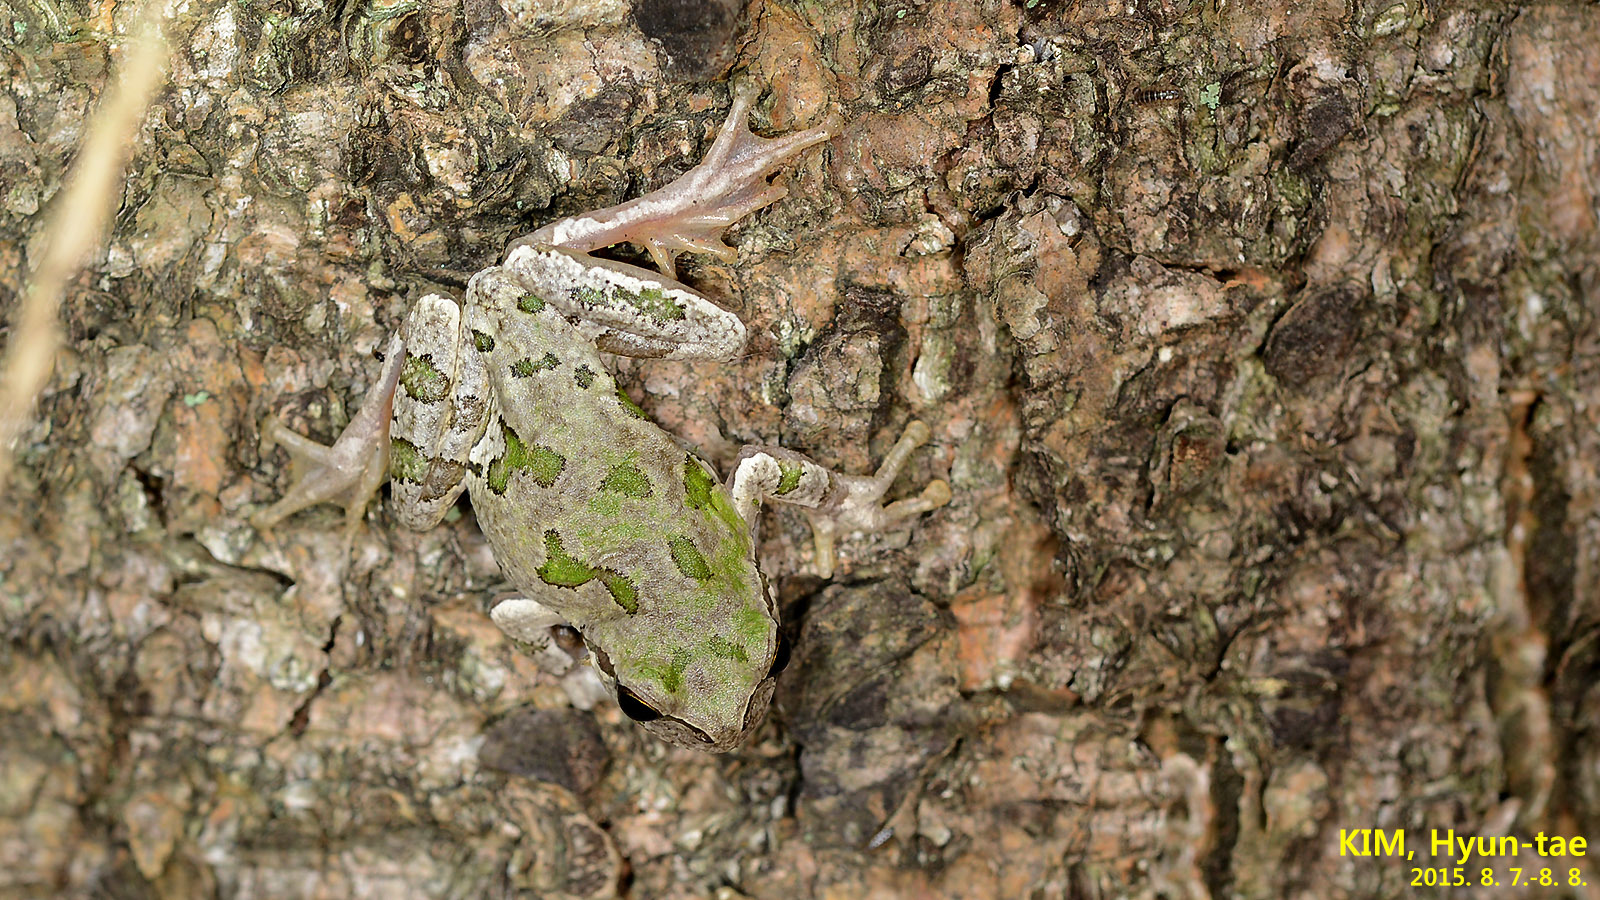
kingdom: Animalia
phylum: Chordata
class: Amphibia
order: Anura
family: Hylidae
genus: Dryophytes
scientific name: Dryophytes japonicus
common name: Japanese treefrog
